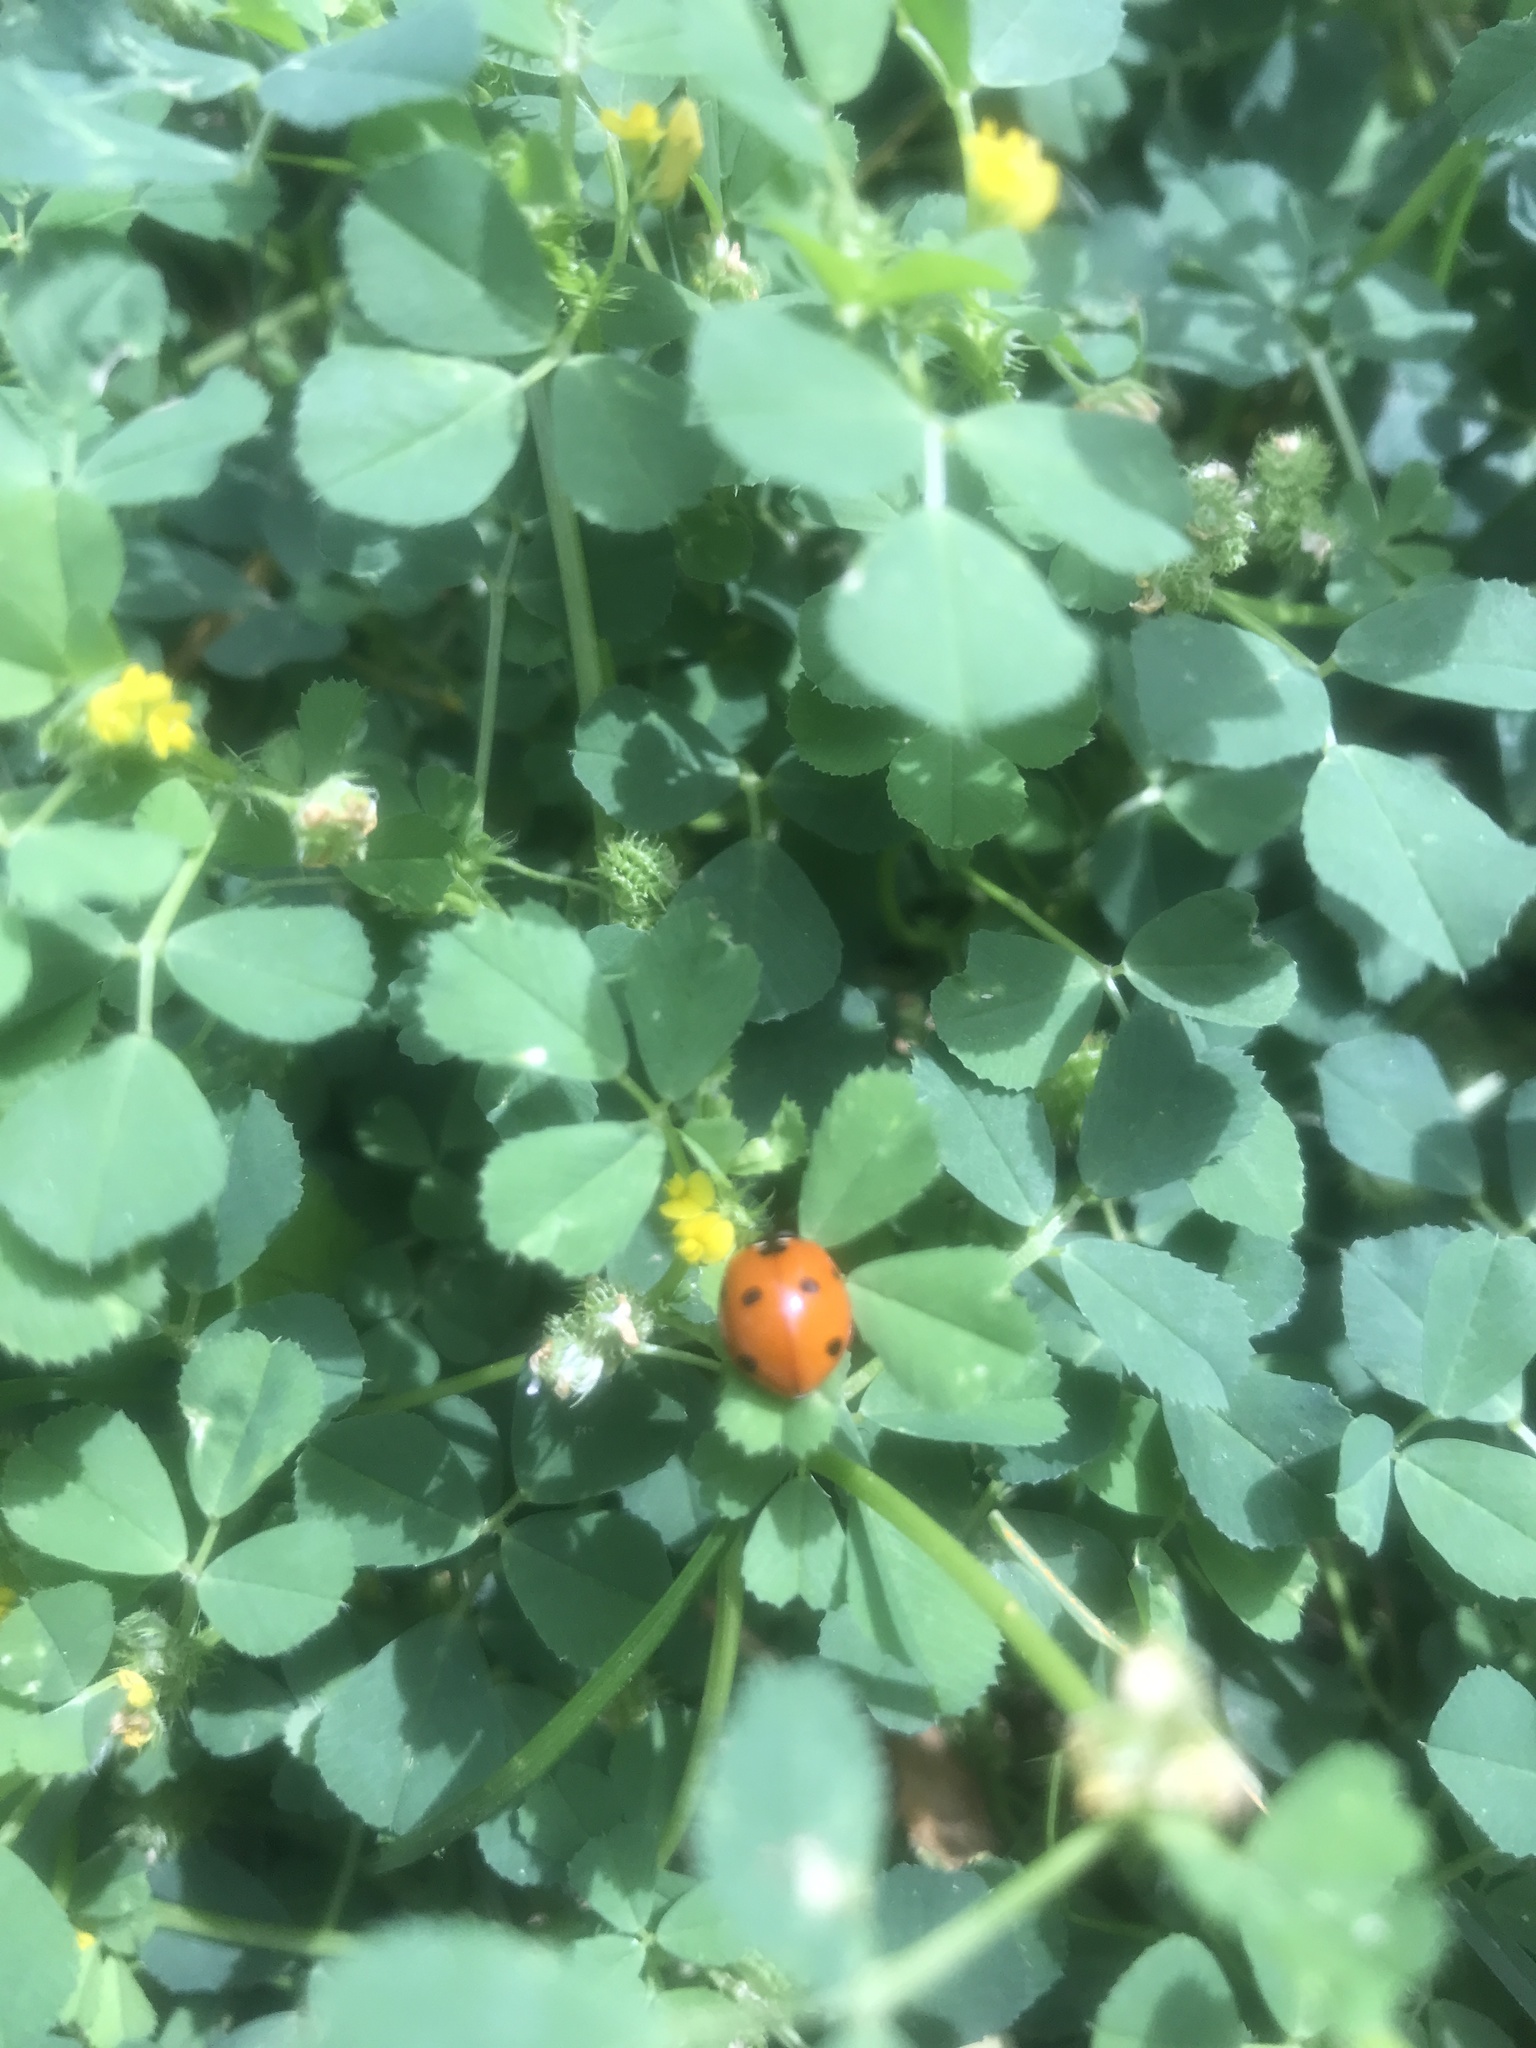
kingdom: Animalia
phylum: Arthropoda
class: Insecta
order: Coleoptera
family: Coccinellidae
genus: Coccinella
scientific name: Coccinella septempunctata
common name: Sevenspotted lady beetle
